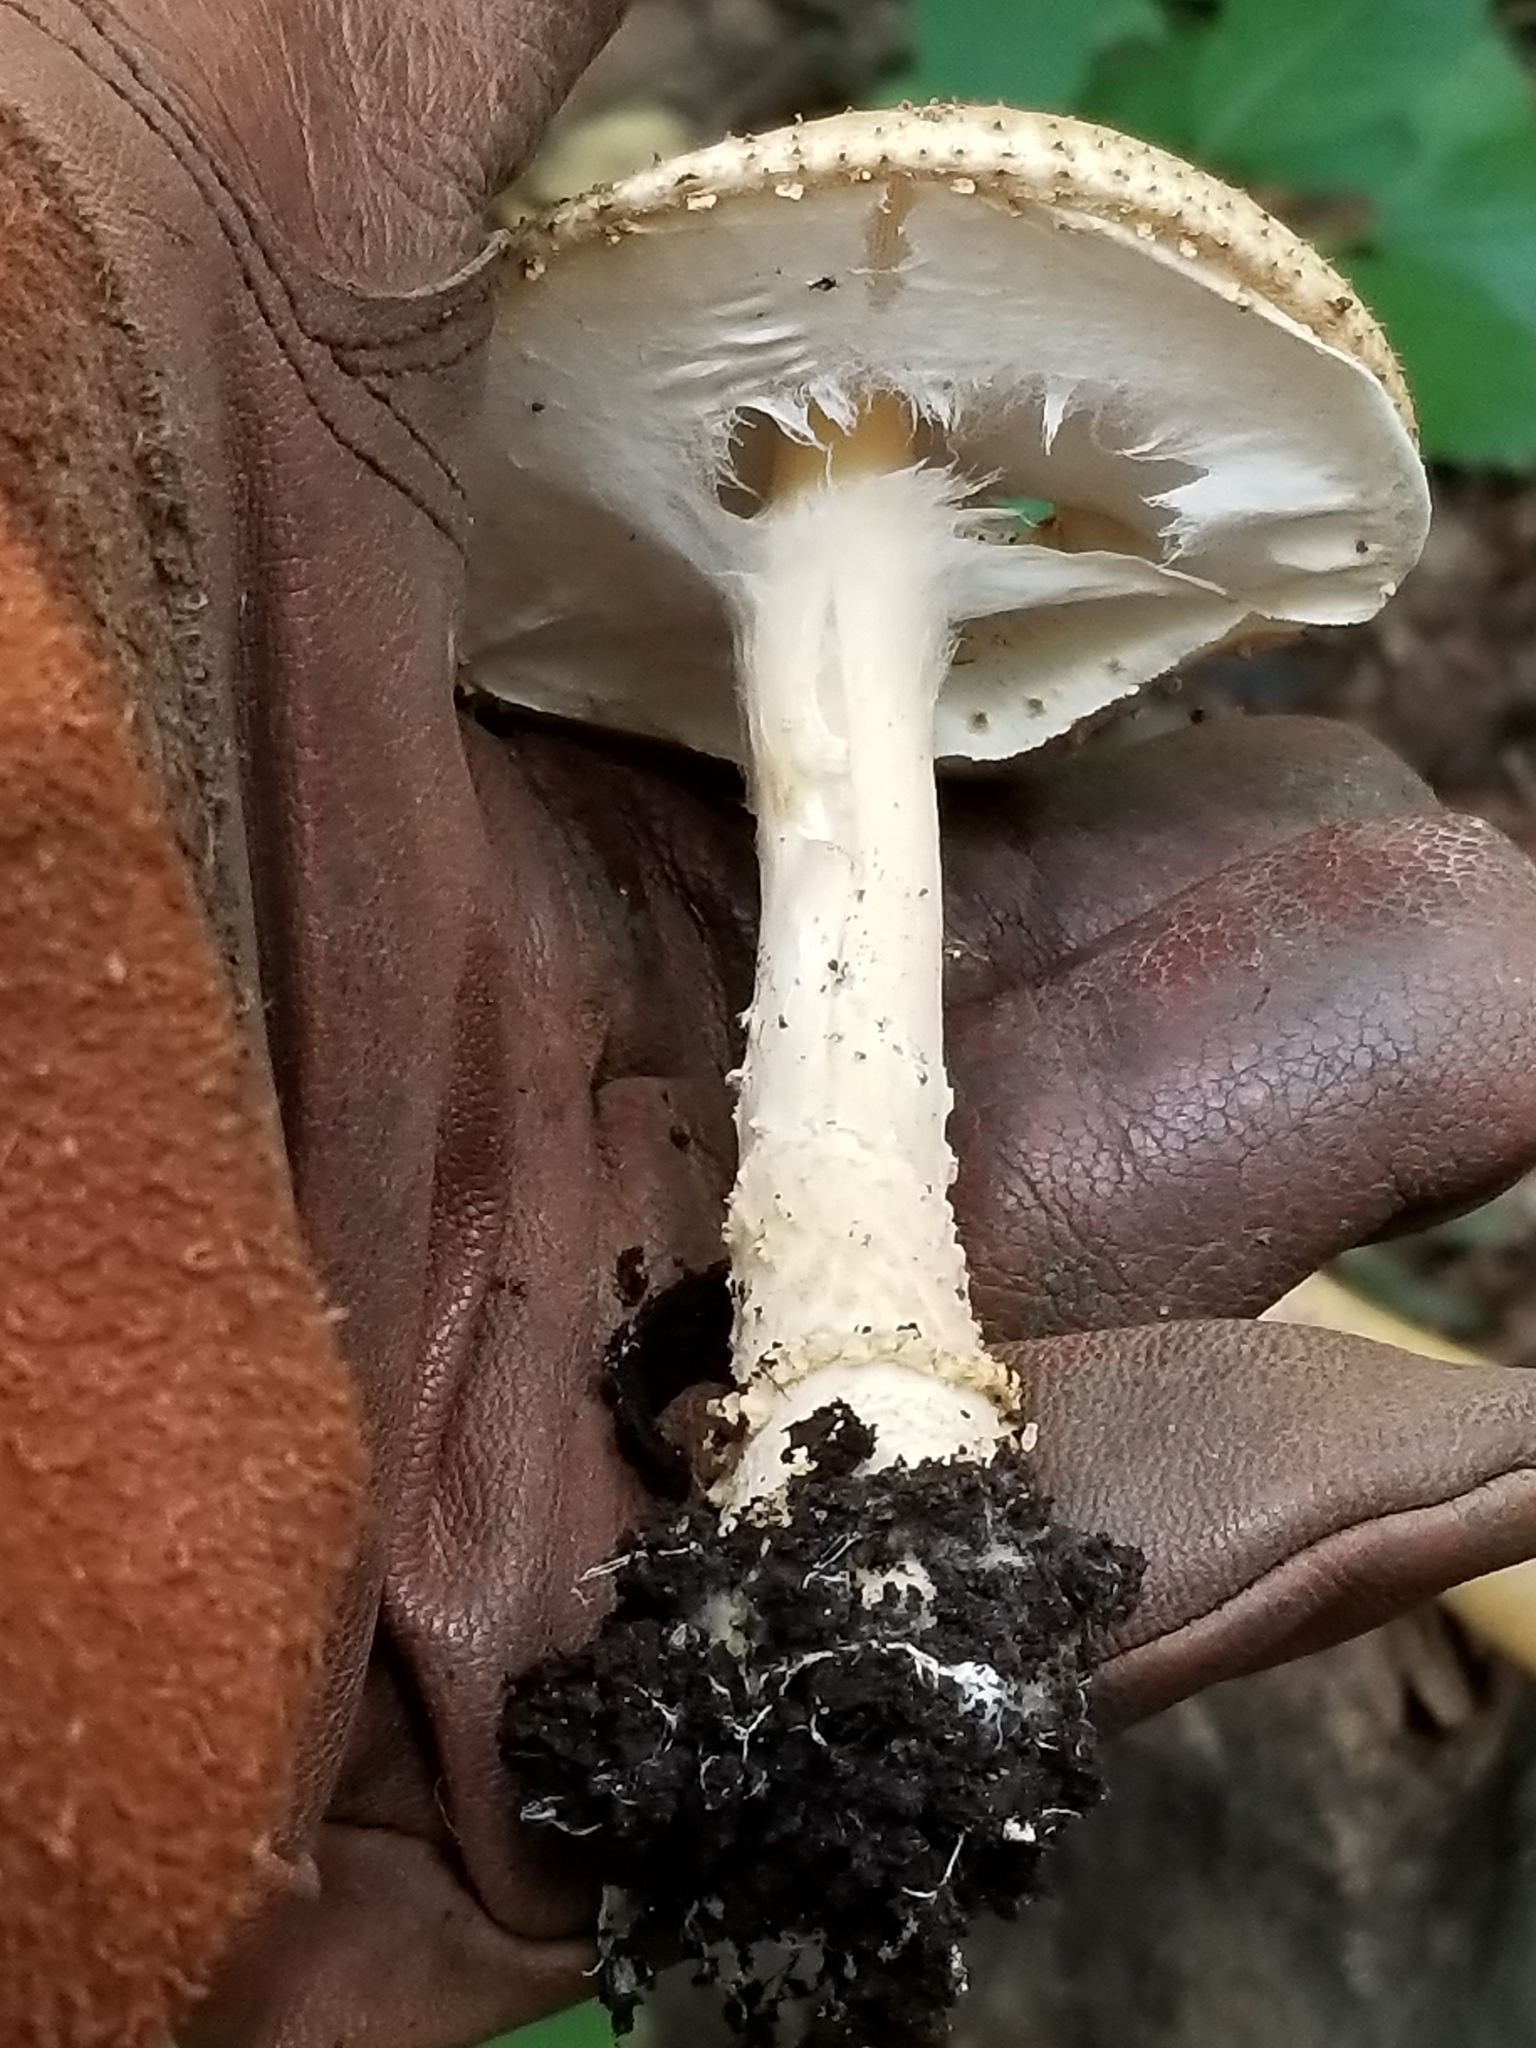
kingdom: Fungi
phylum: Basidiomycota
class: Agaricomycetes
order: Agaricales
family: Amanitaceae
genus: Amanita
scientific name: Amanita submaculata
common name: Ball gown amanita
